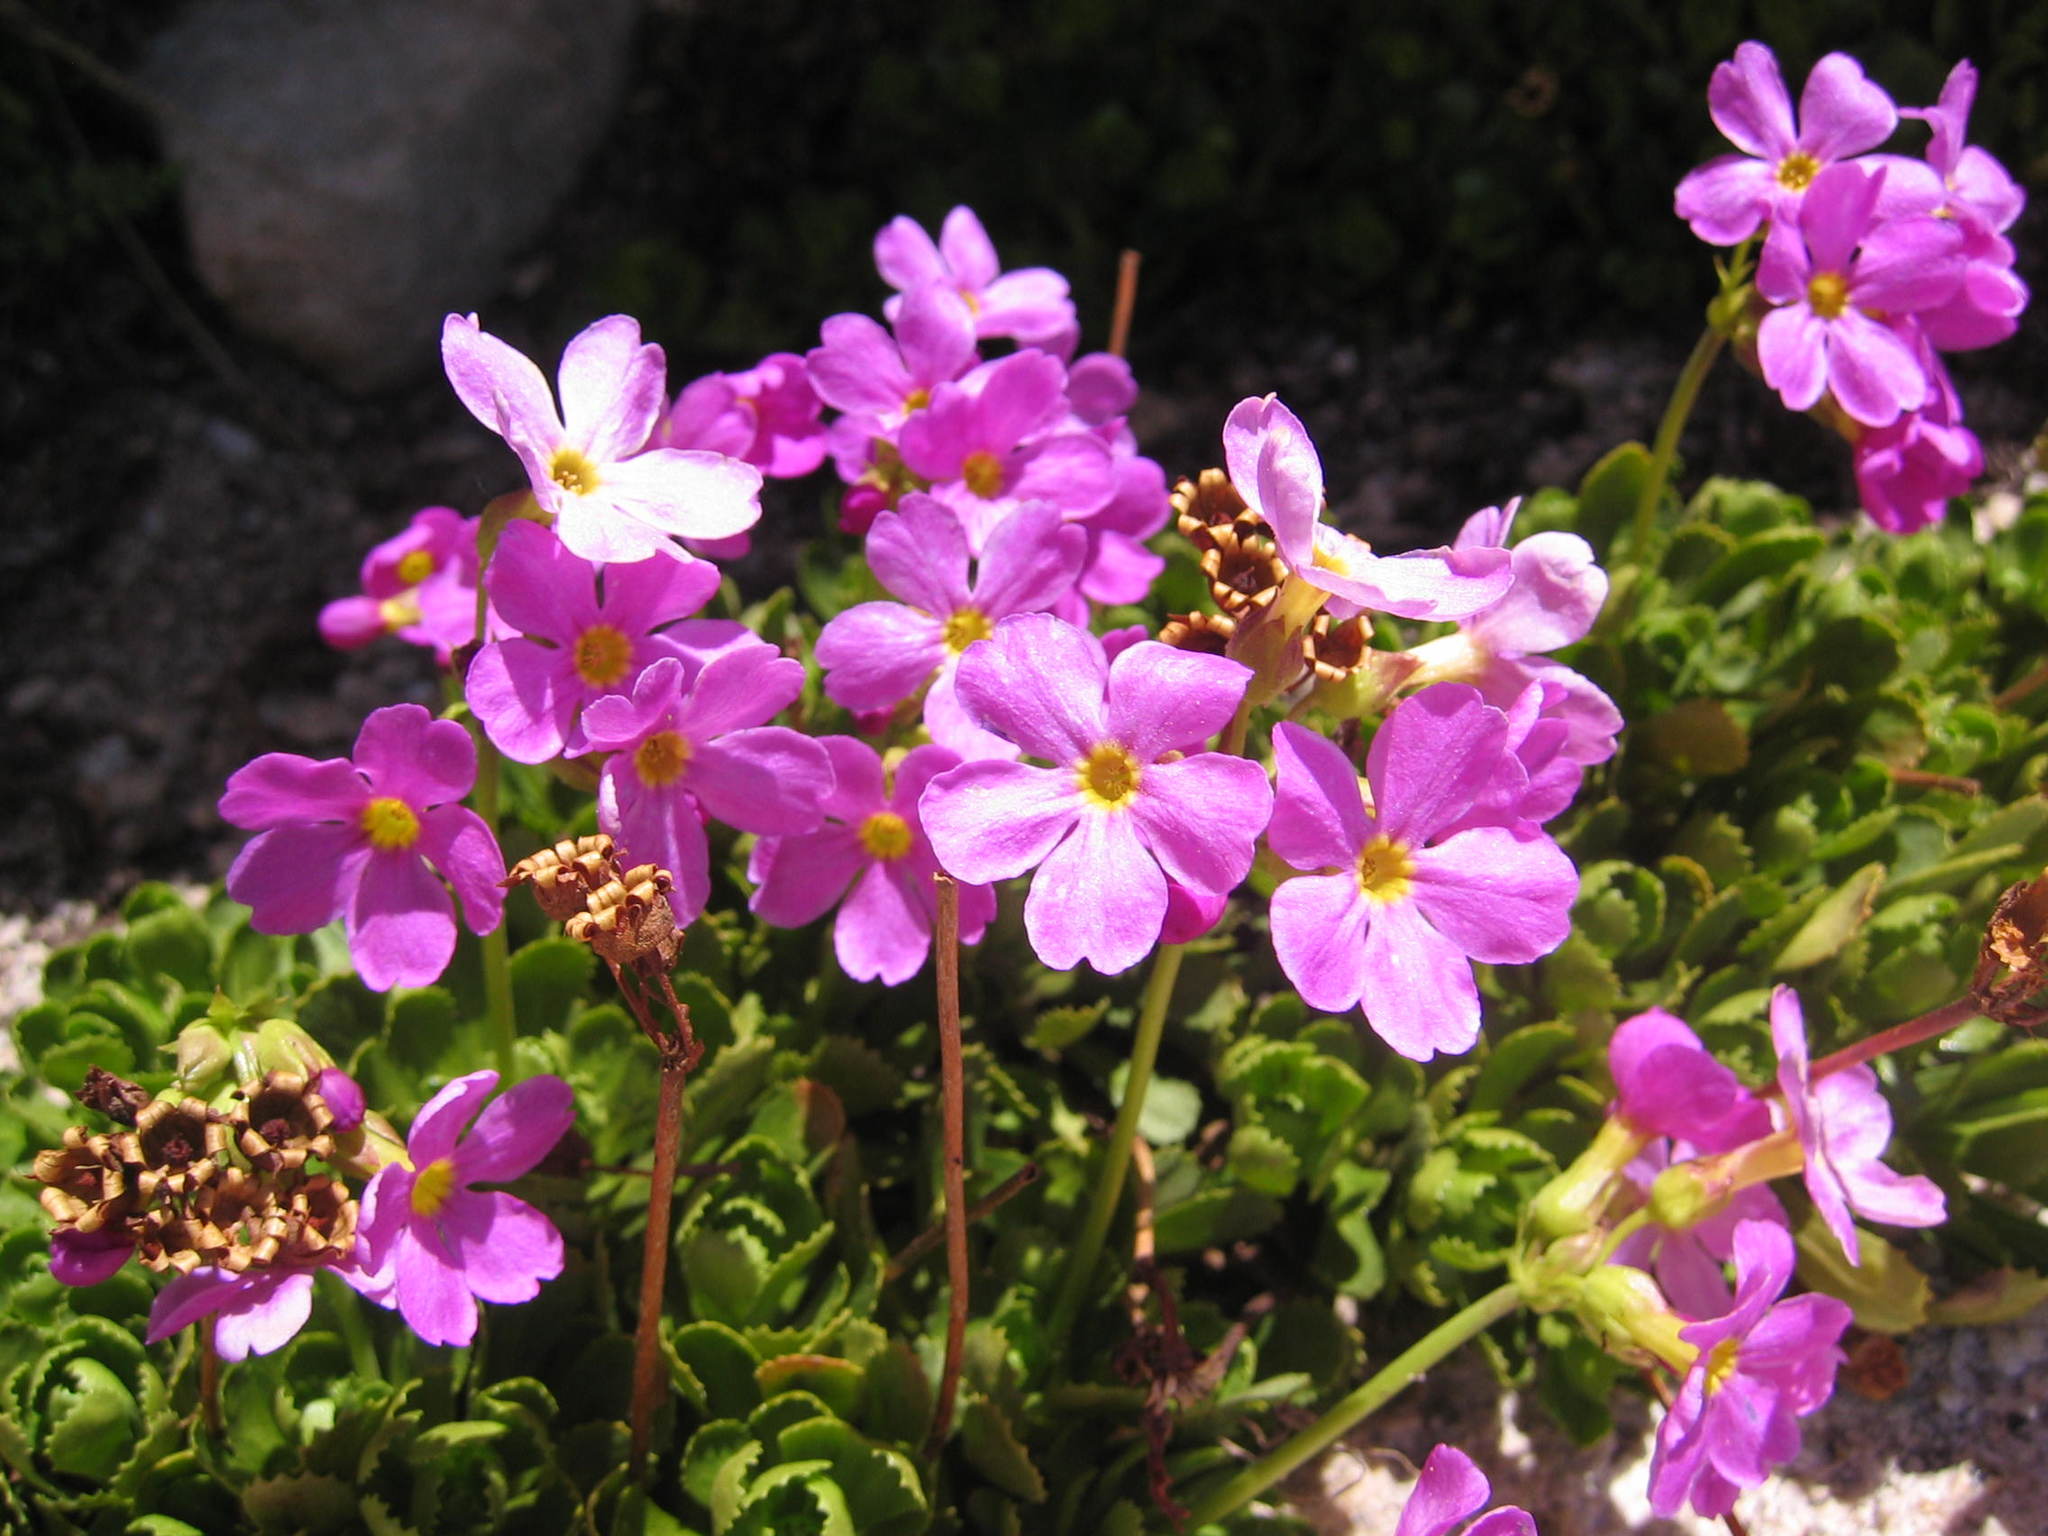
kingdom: Plantae
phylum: Tracheophyta
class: Magnoliopsida
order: Ericales
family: Primulaceae
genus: Primula
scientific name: Primula suffrutescens
